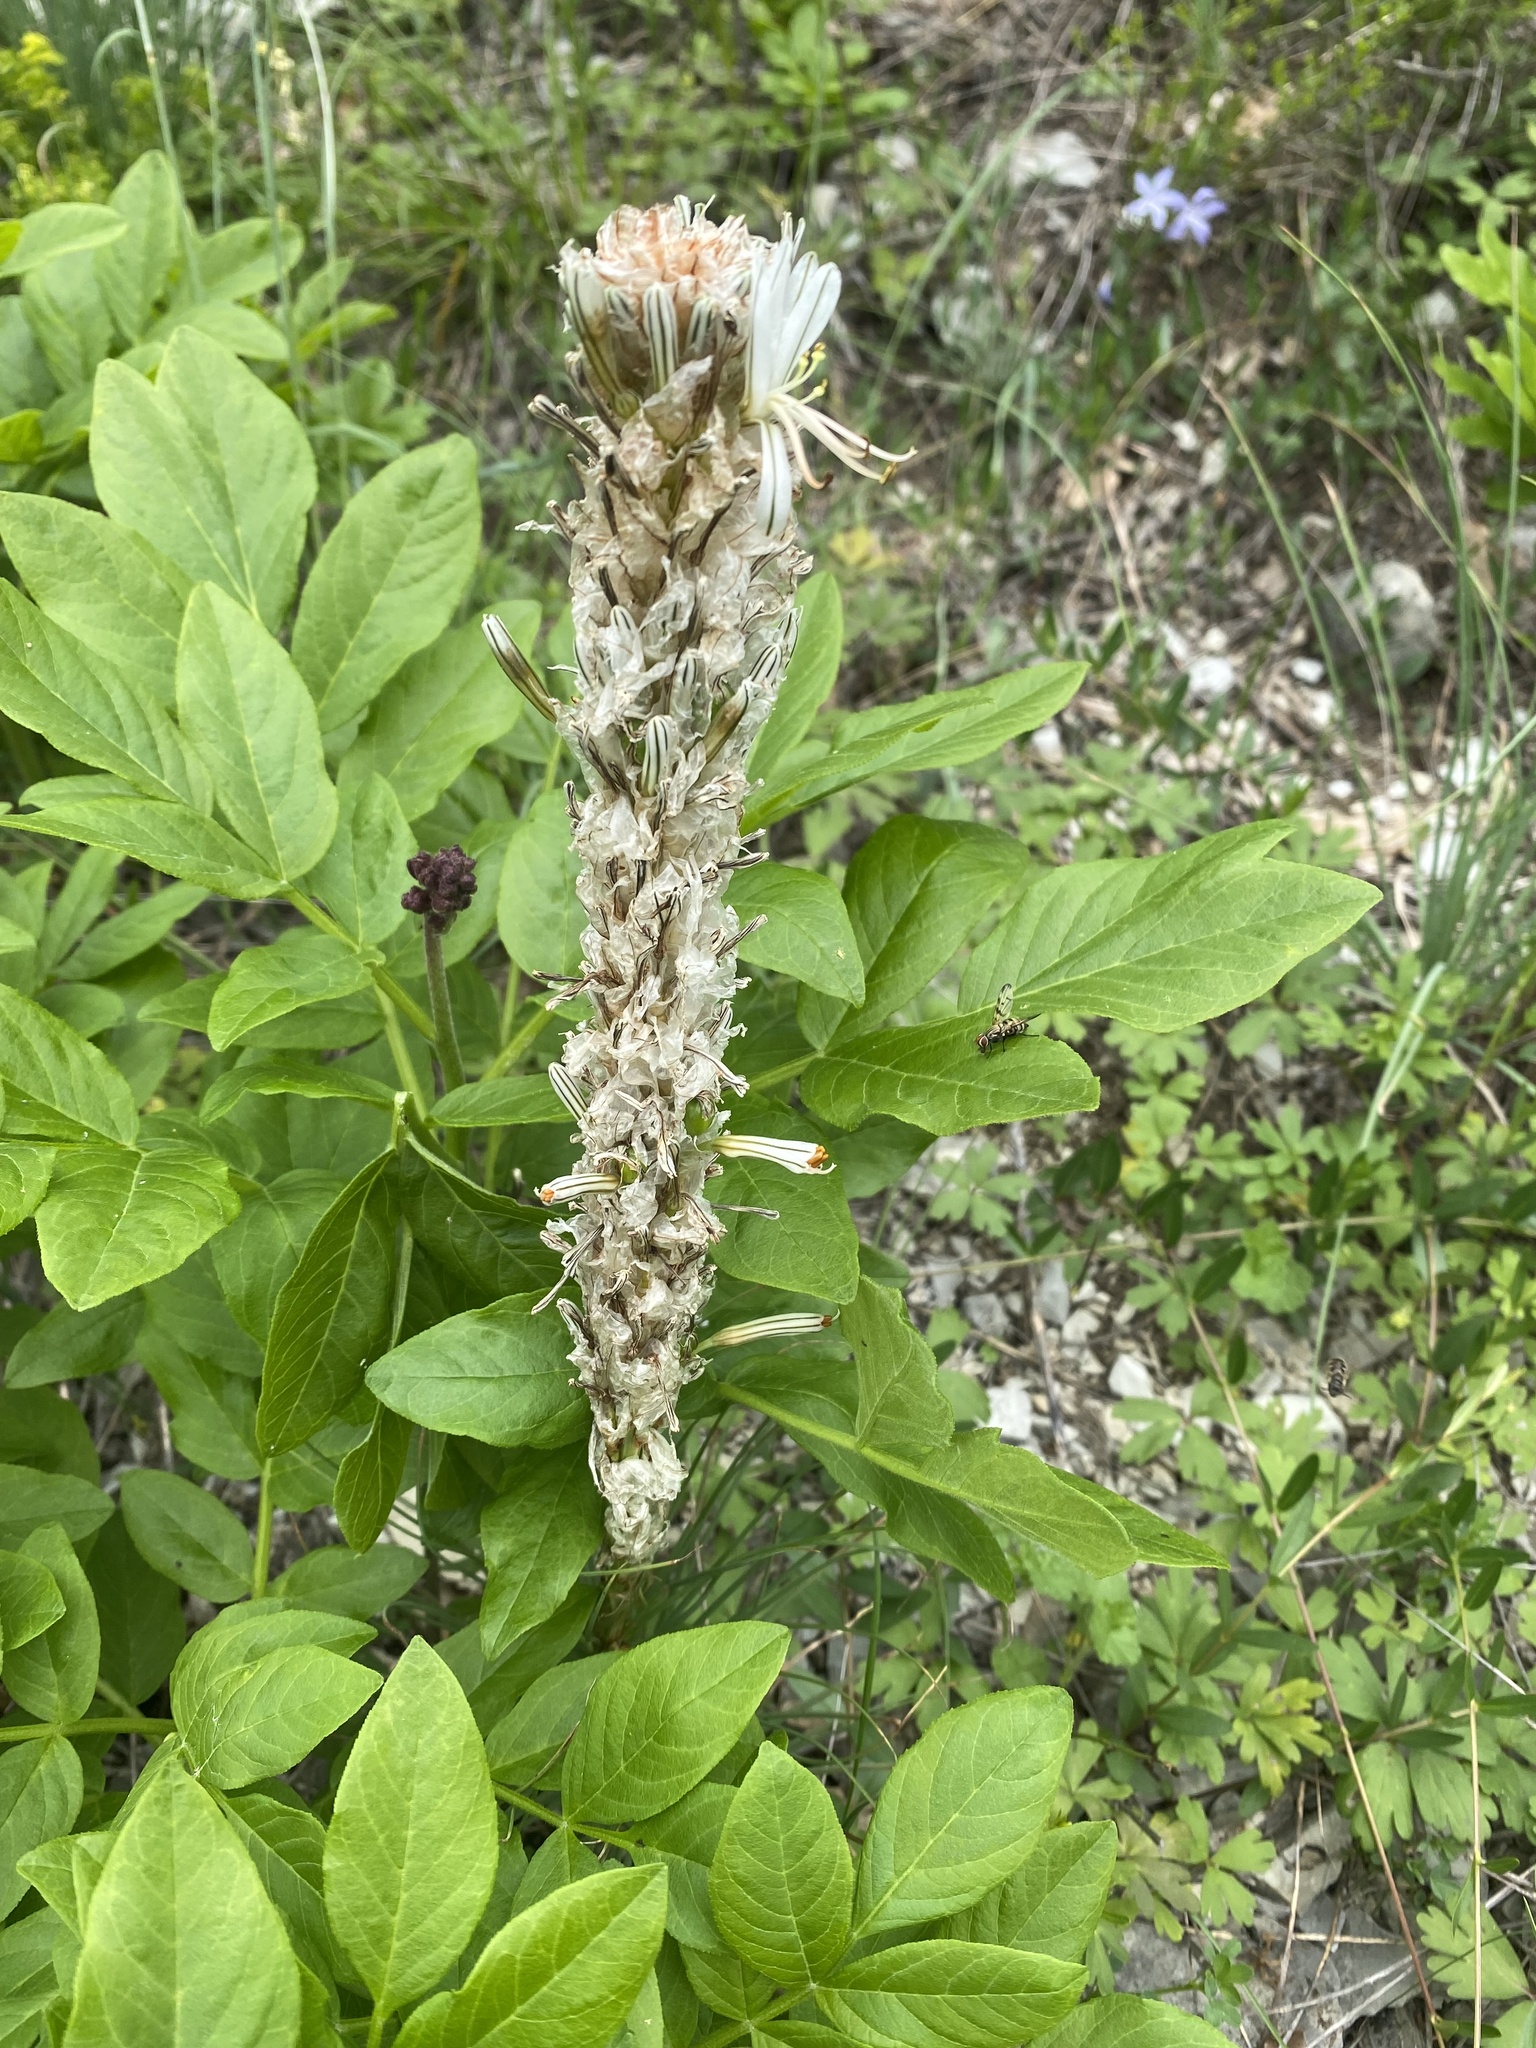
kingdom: Plantae
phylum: Tracheophyta
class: Liliopsida
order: Asparagales
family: Asphodelaceae
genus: Asphodeline
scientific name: Asphodeline taurica
